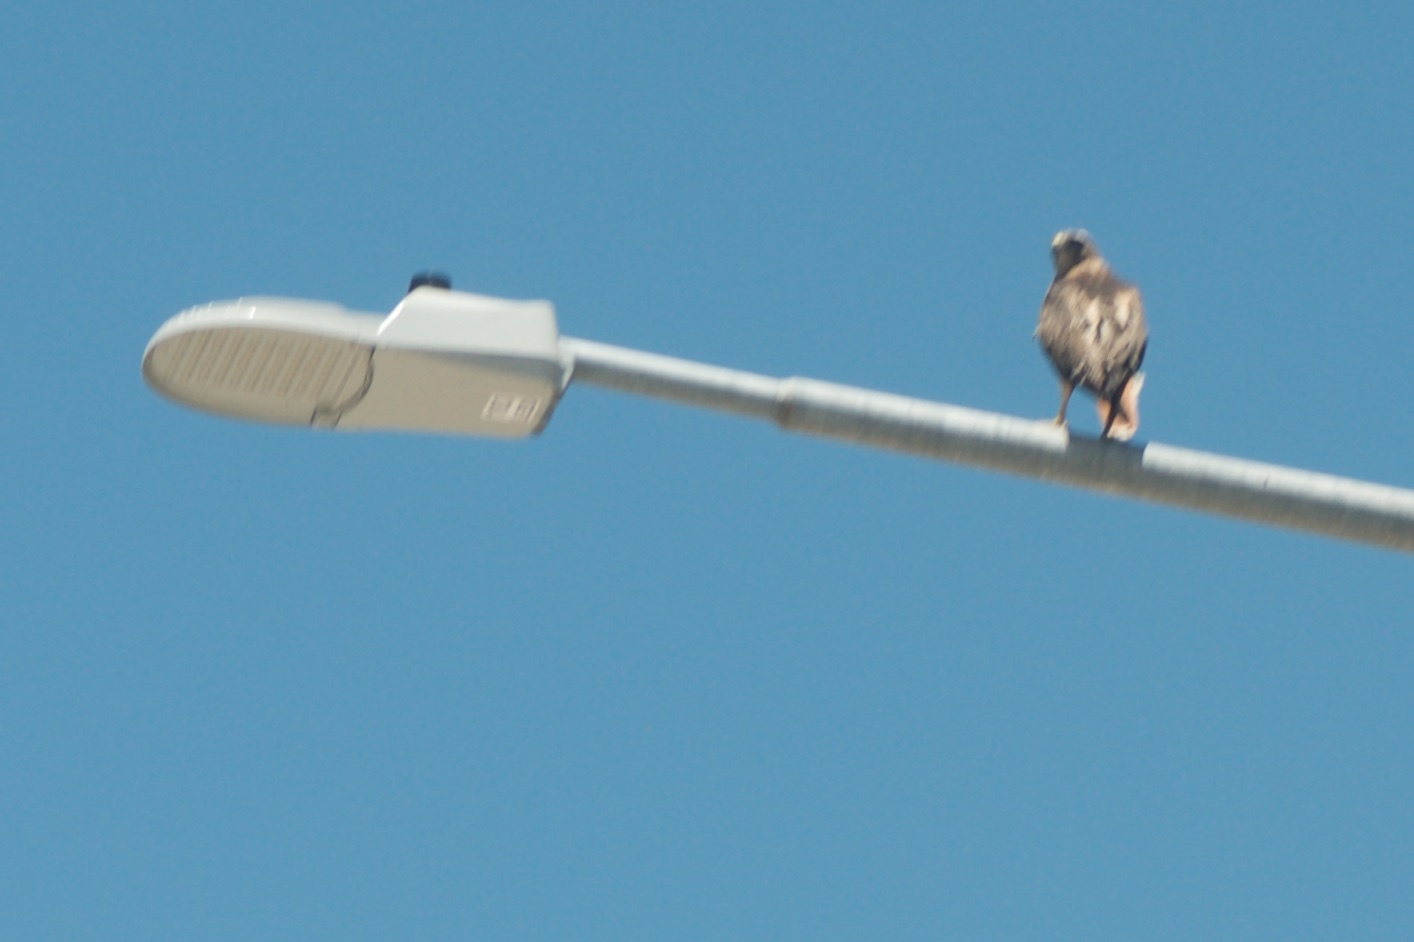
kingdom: Animalia
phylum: Chordata
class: Aves
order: Accipitriformes
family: Accipitridae
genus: Buteo
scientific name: Buteo jamaicensis
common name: Red-tailed hawk
